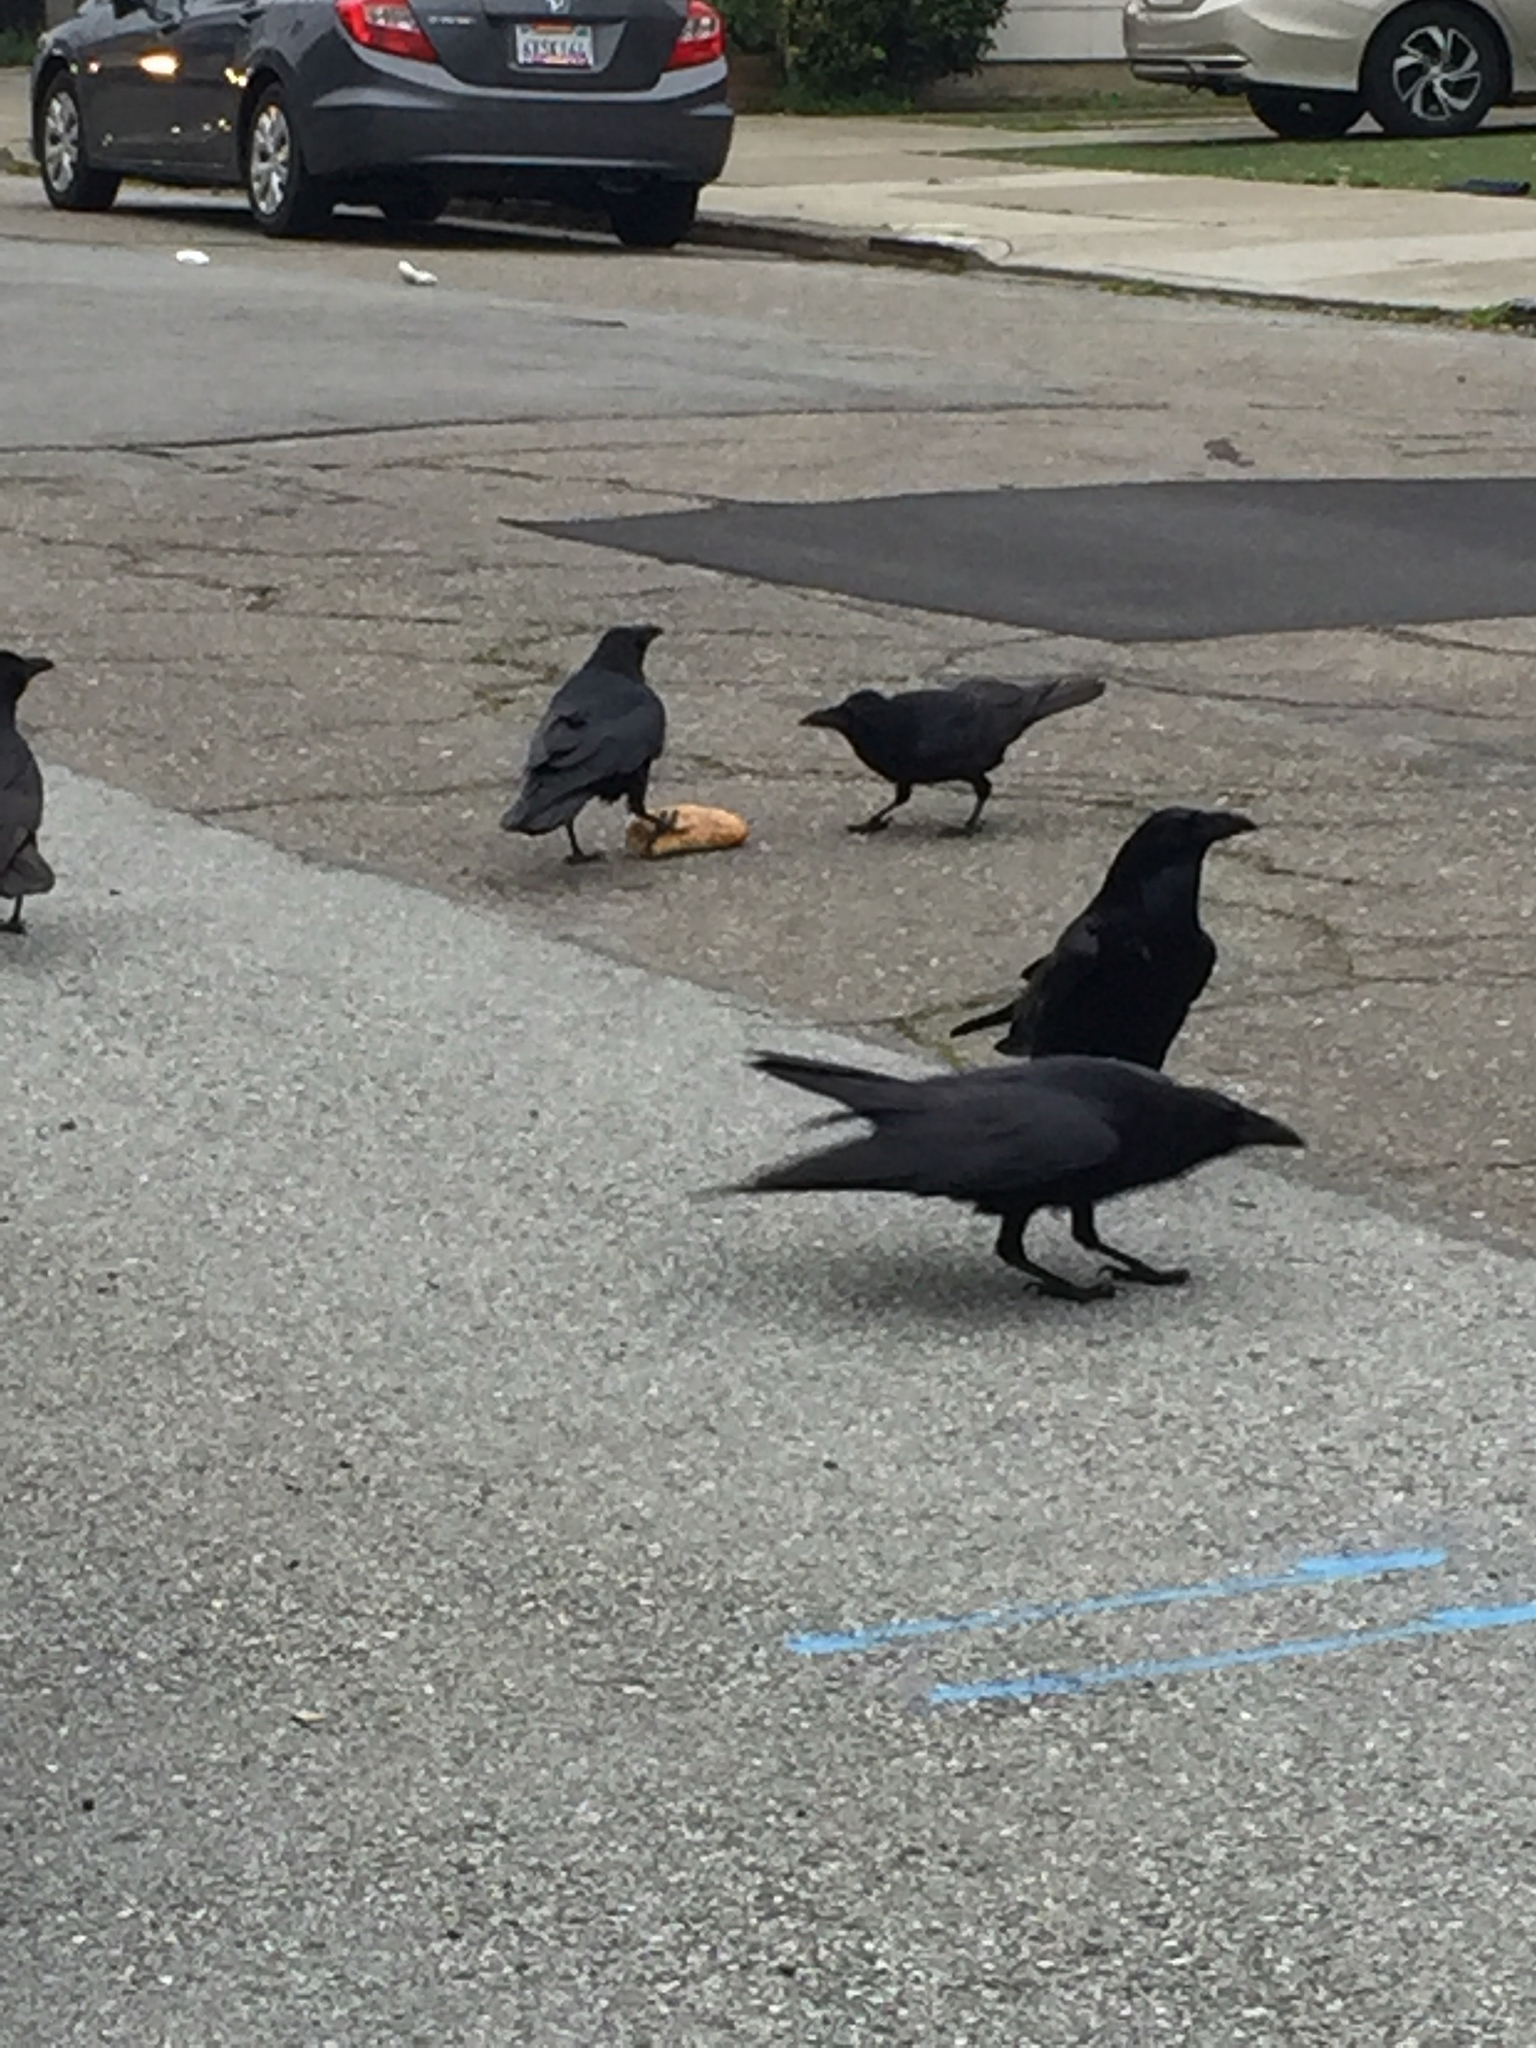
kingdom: Animalia
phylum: Chordata
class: Aves
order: Passeriformes
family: Corvidae
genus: Corvus
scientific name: Corvus corax
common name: Common raven
